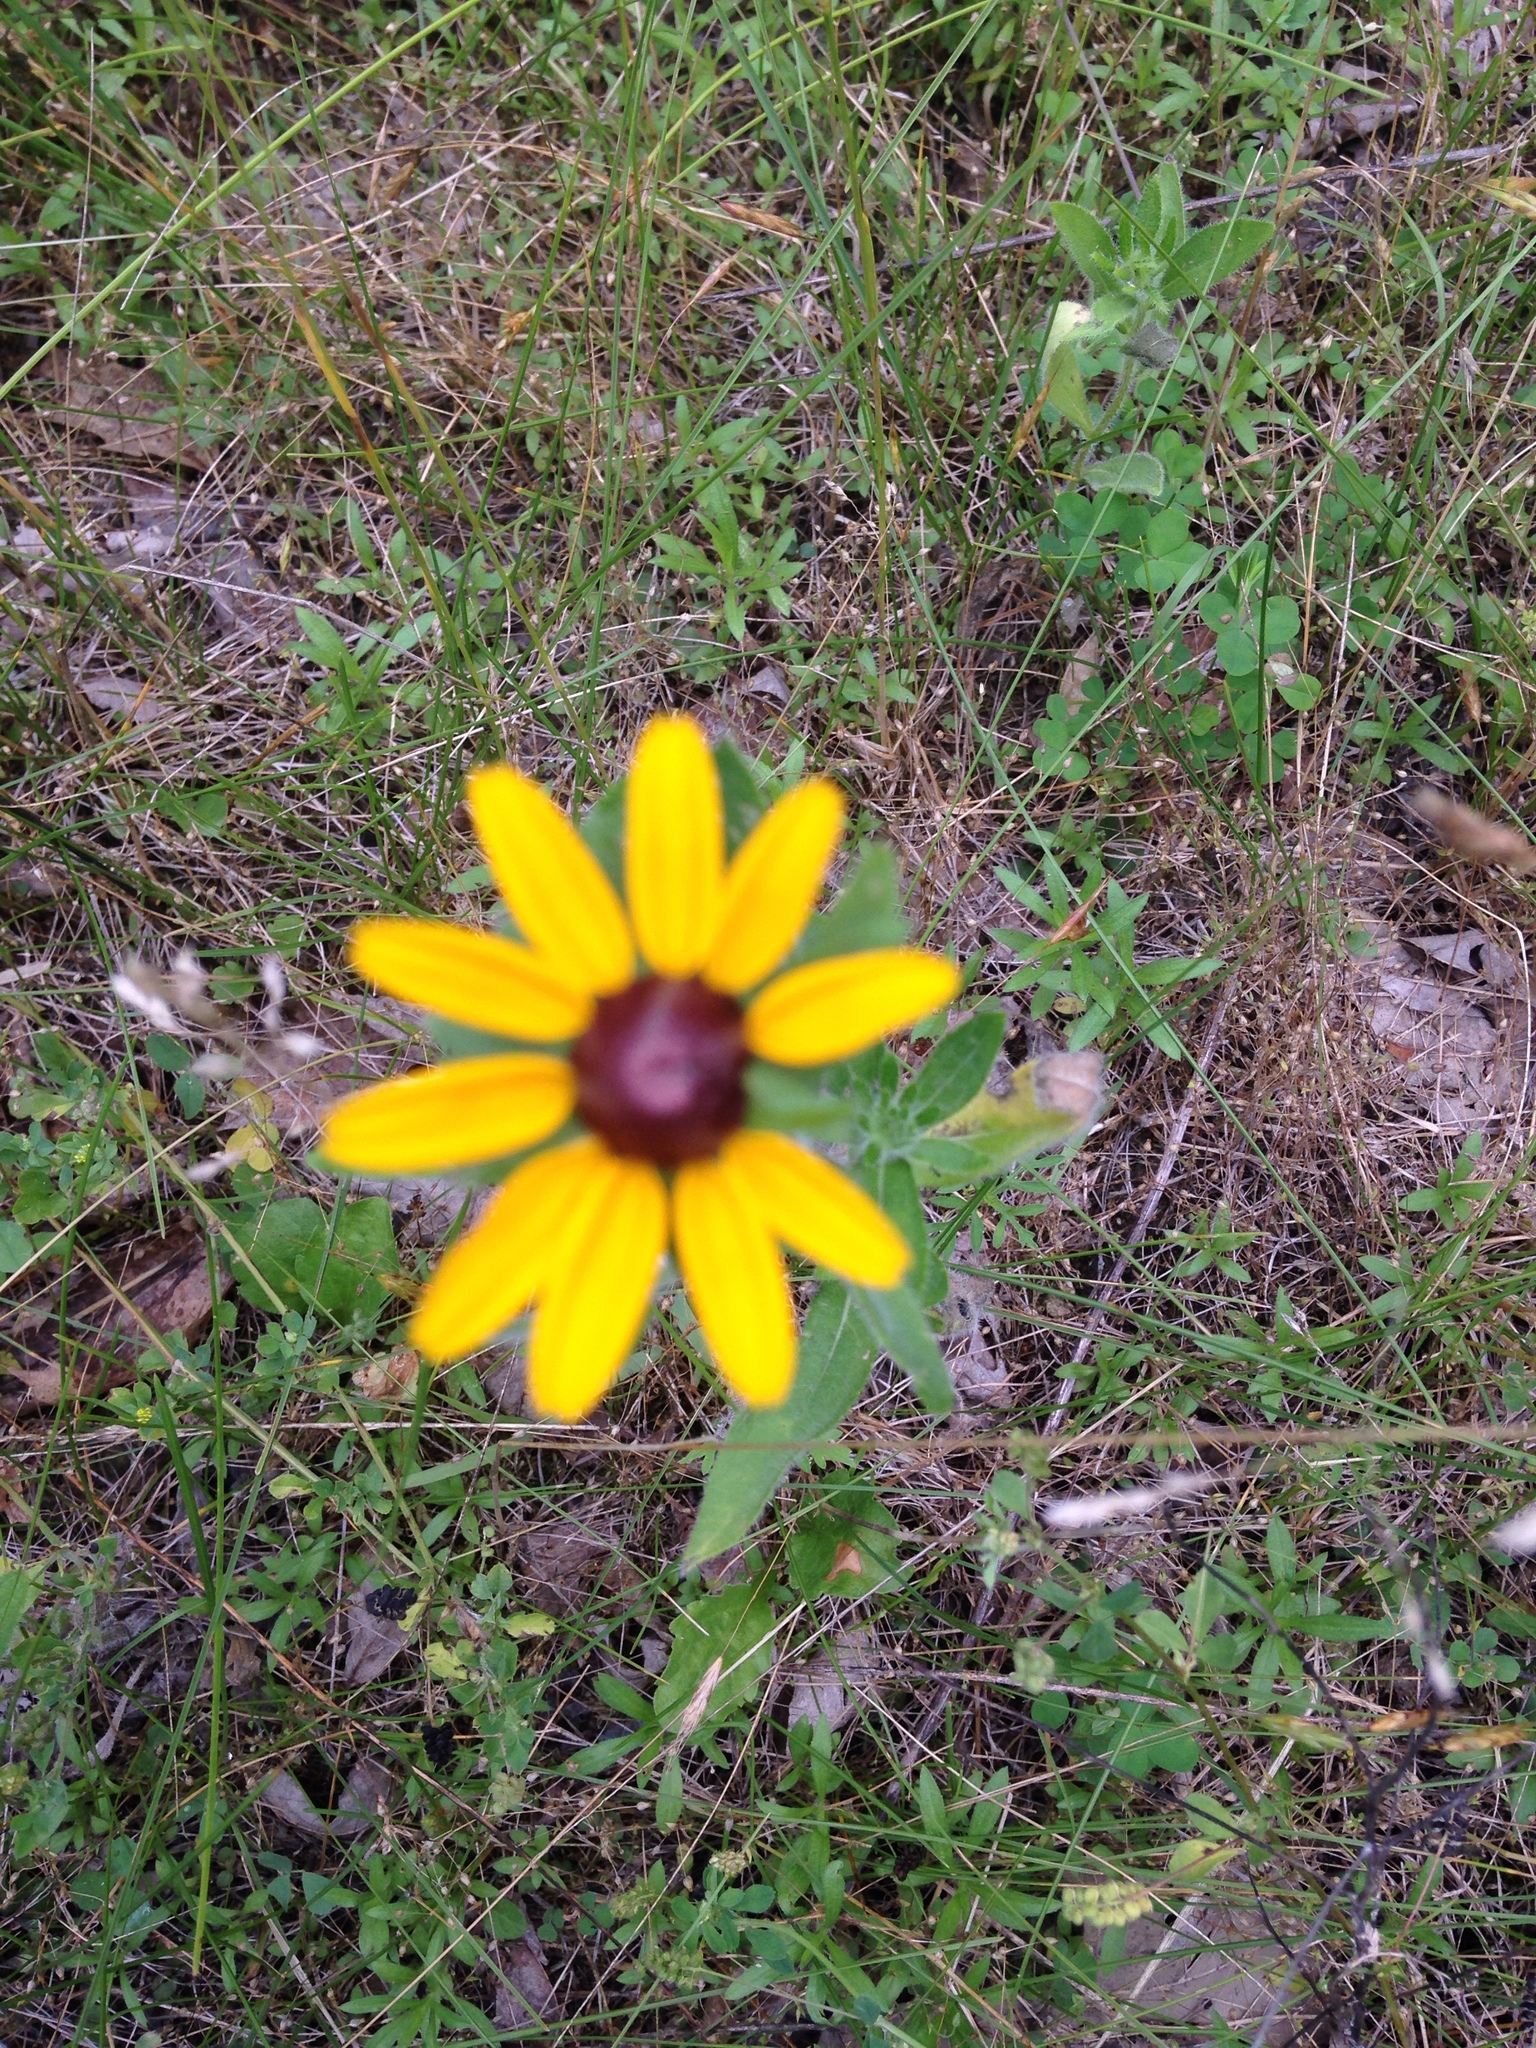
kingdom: Plantae
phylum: Tracheophyta
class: Magnoliopsida
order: Asterales
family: Asteraceae
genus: Rudbeckia
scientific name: Rudbeckia hirta
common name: Black-eyed-susan
